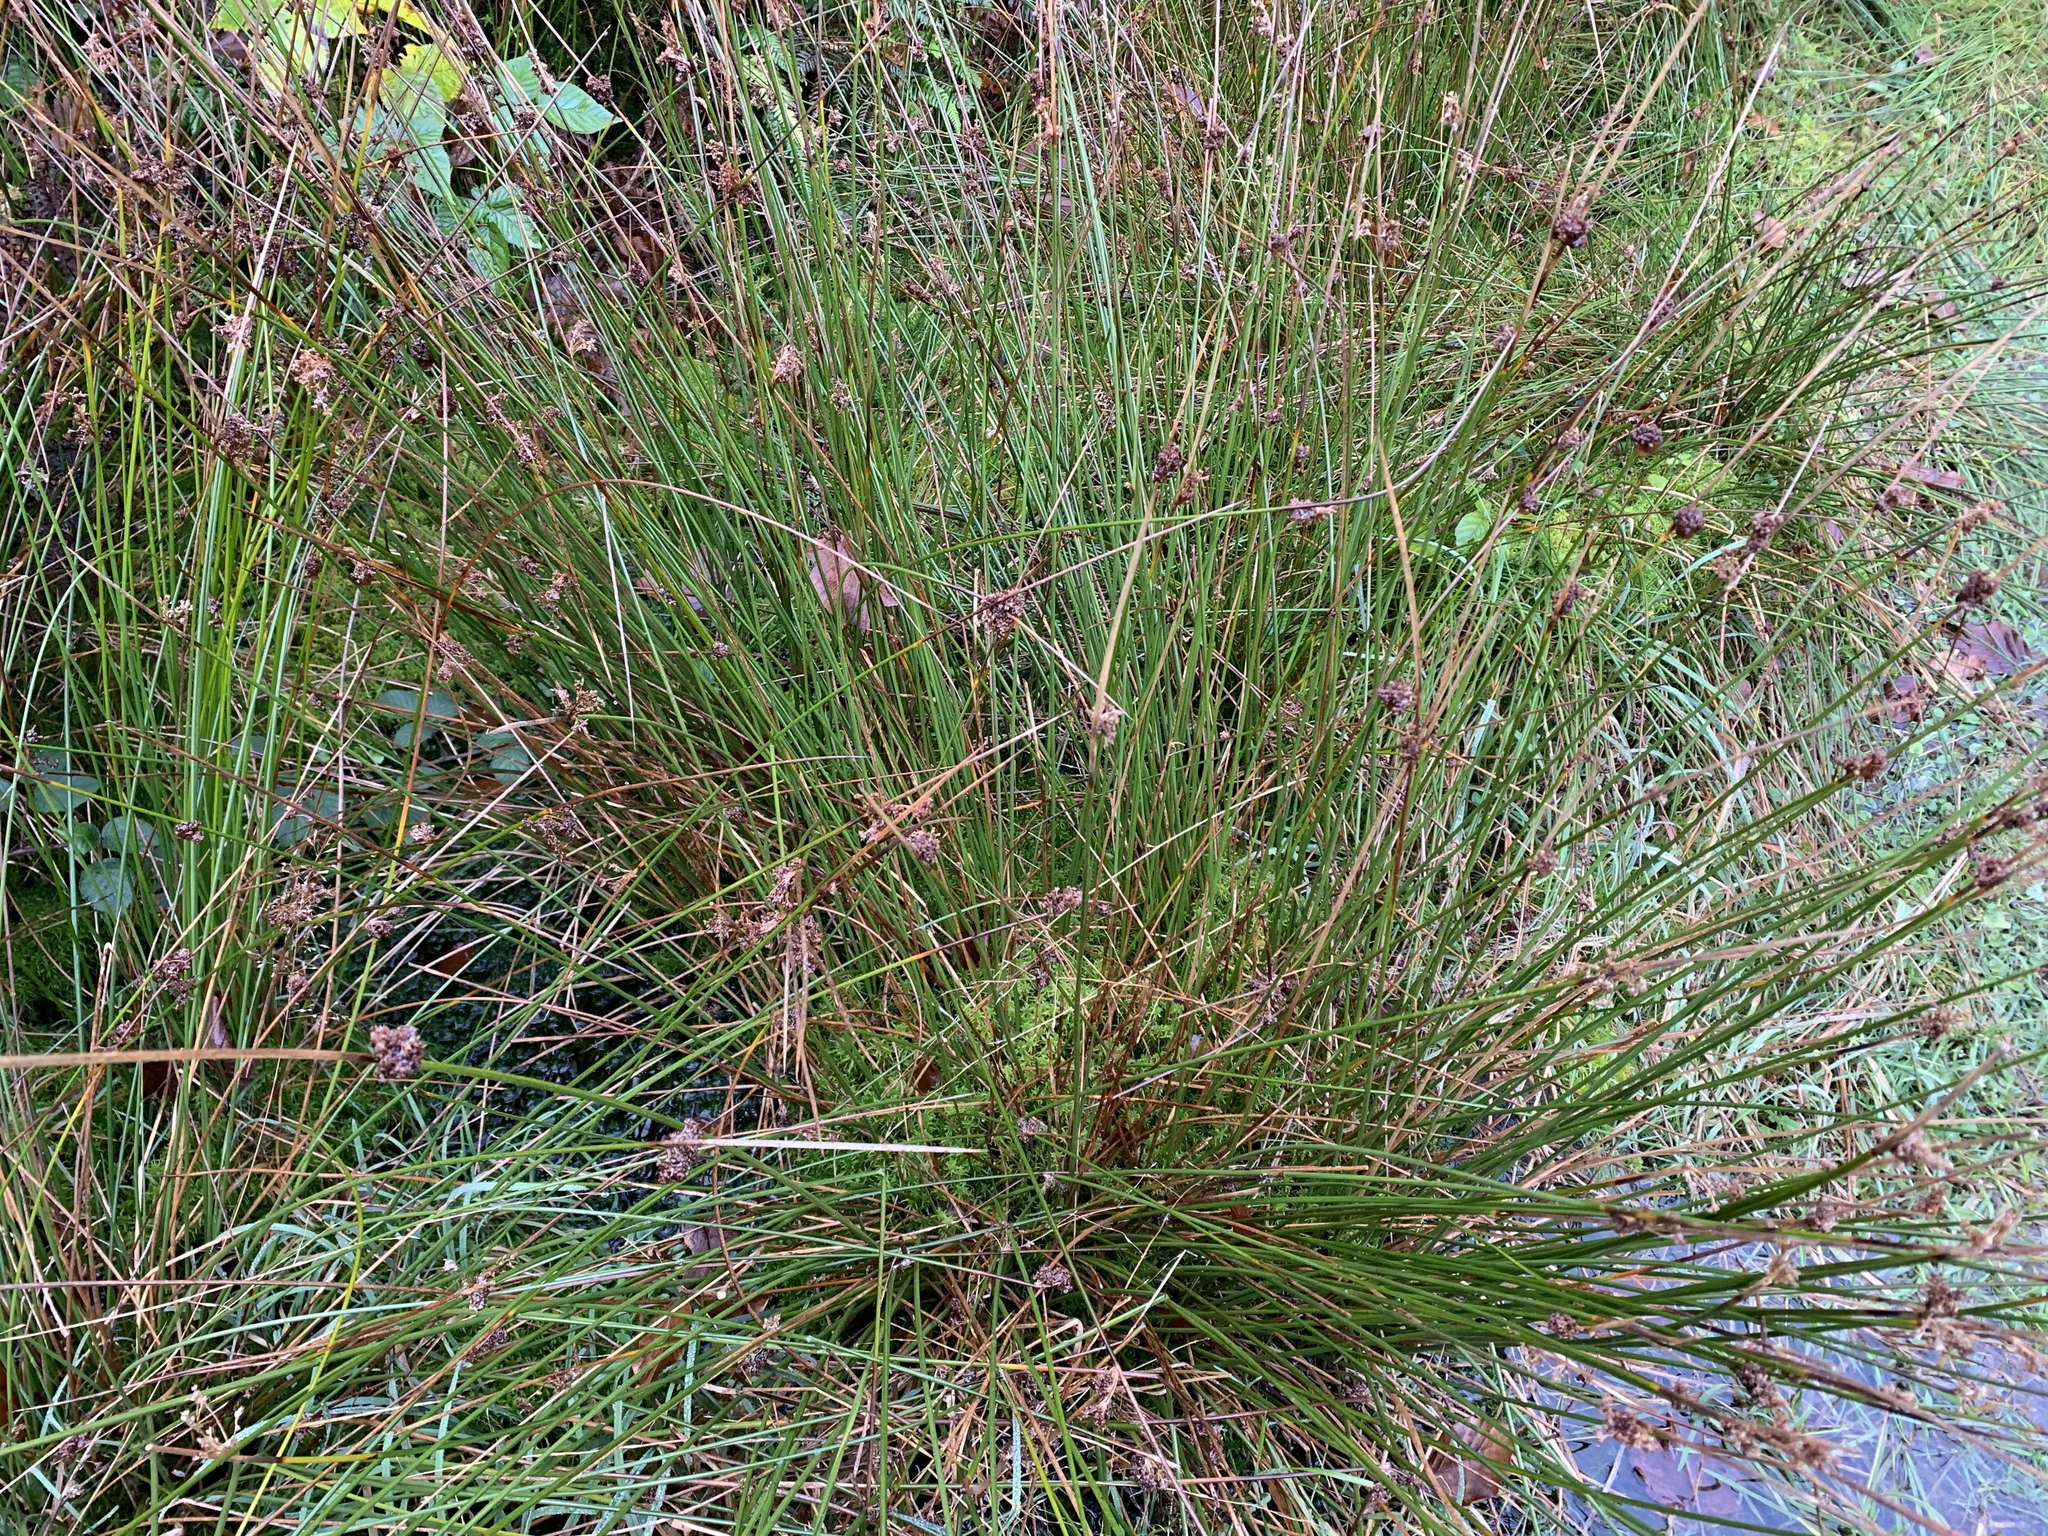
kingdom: Plantae
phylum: Tracheophyta
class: Liliopsida
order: Poales
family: Juncaceae
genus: Juncus
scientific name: Juncus effusus
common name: Soft rush
